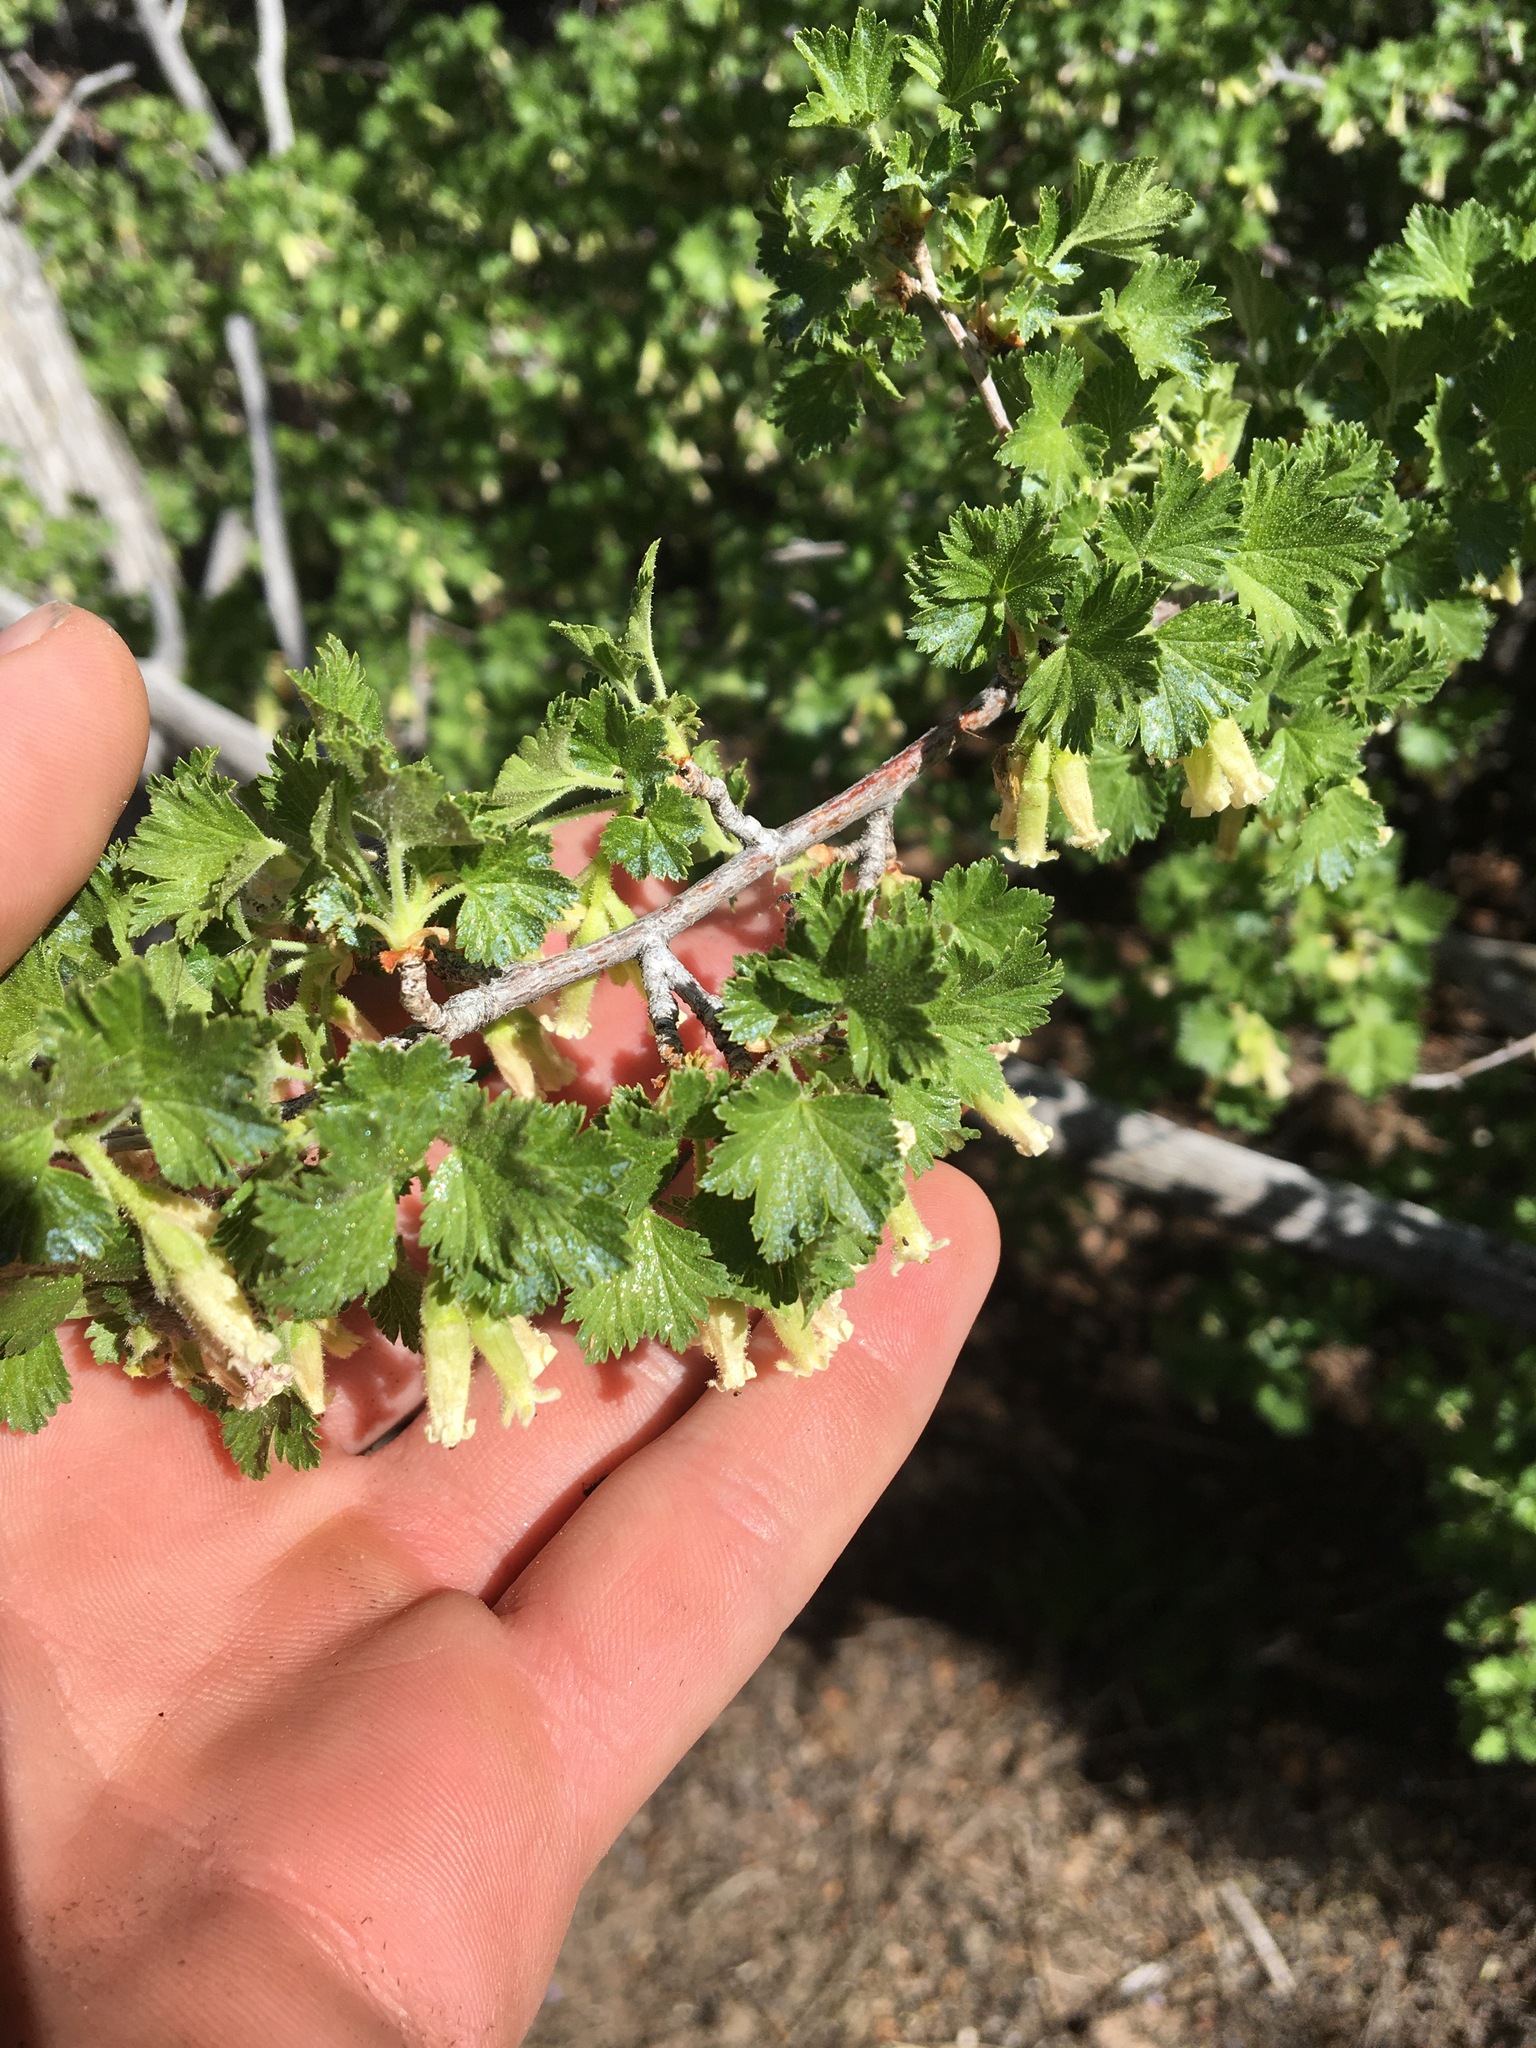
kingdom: Plantae
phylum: Tracheophyta
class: Magnoliopsida
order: Saxifragales
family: Grossulariaceae
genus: Ribes
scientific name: Ribes cereum
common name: Wax currant
